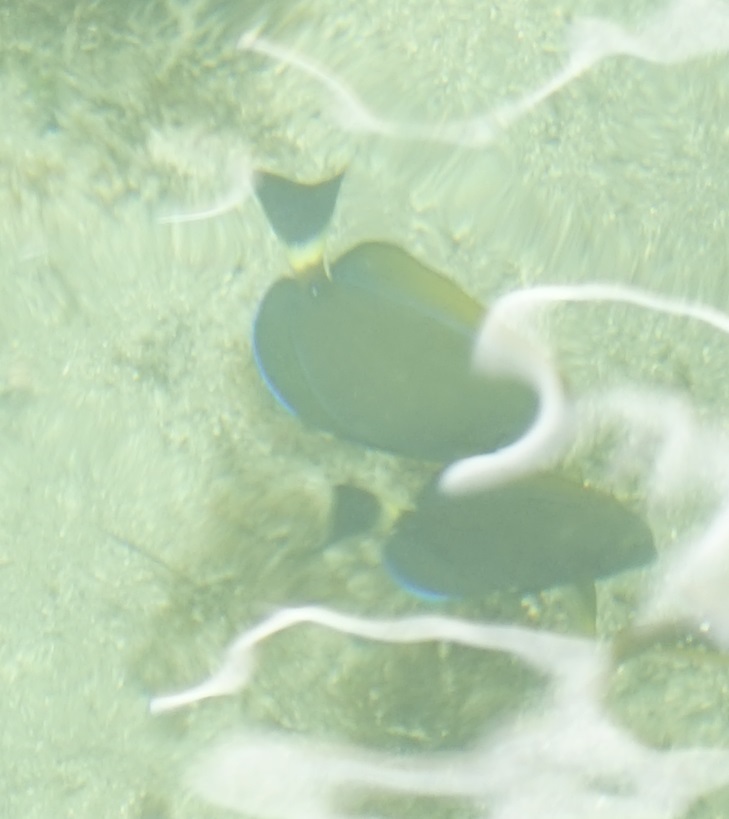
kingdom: Animalia
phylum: Chordata
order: Perciformes
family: Acanthuridae
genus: Acanthurus
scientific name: Acanthurus dussumieri
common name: Dussumier's surgeonfish
